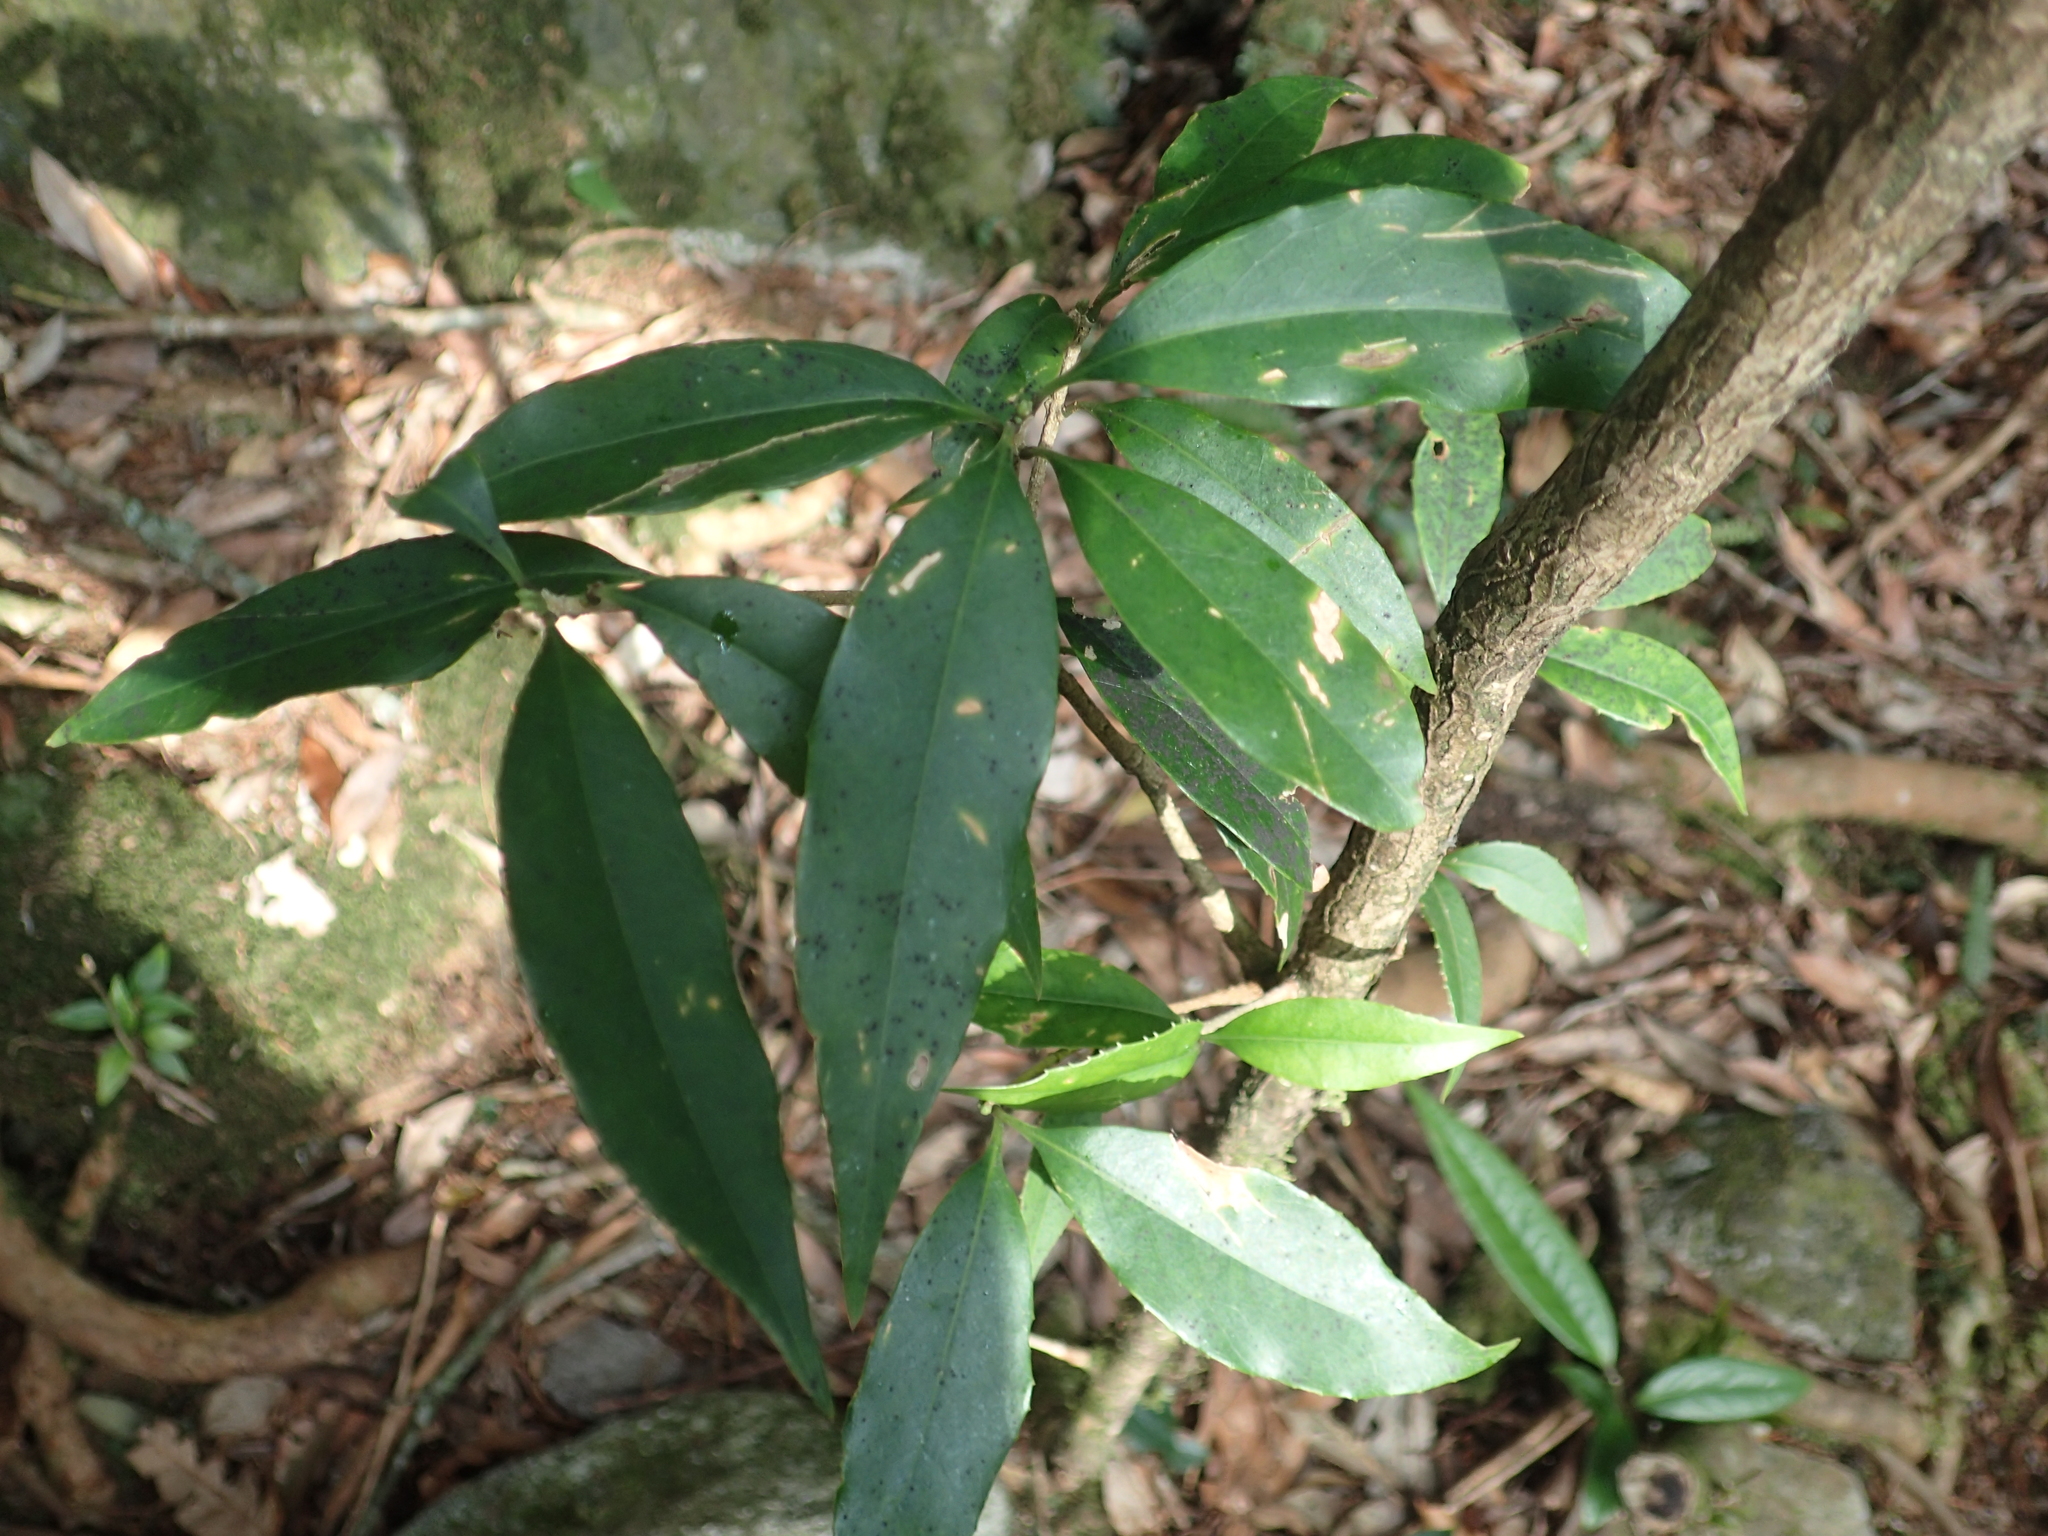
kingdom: Plantae
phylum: Tracheophyta
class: Magnoliopsida
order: Lamiales
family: Oleaceae
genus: Osmanthus
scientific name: Osmanthus lanceolatus
